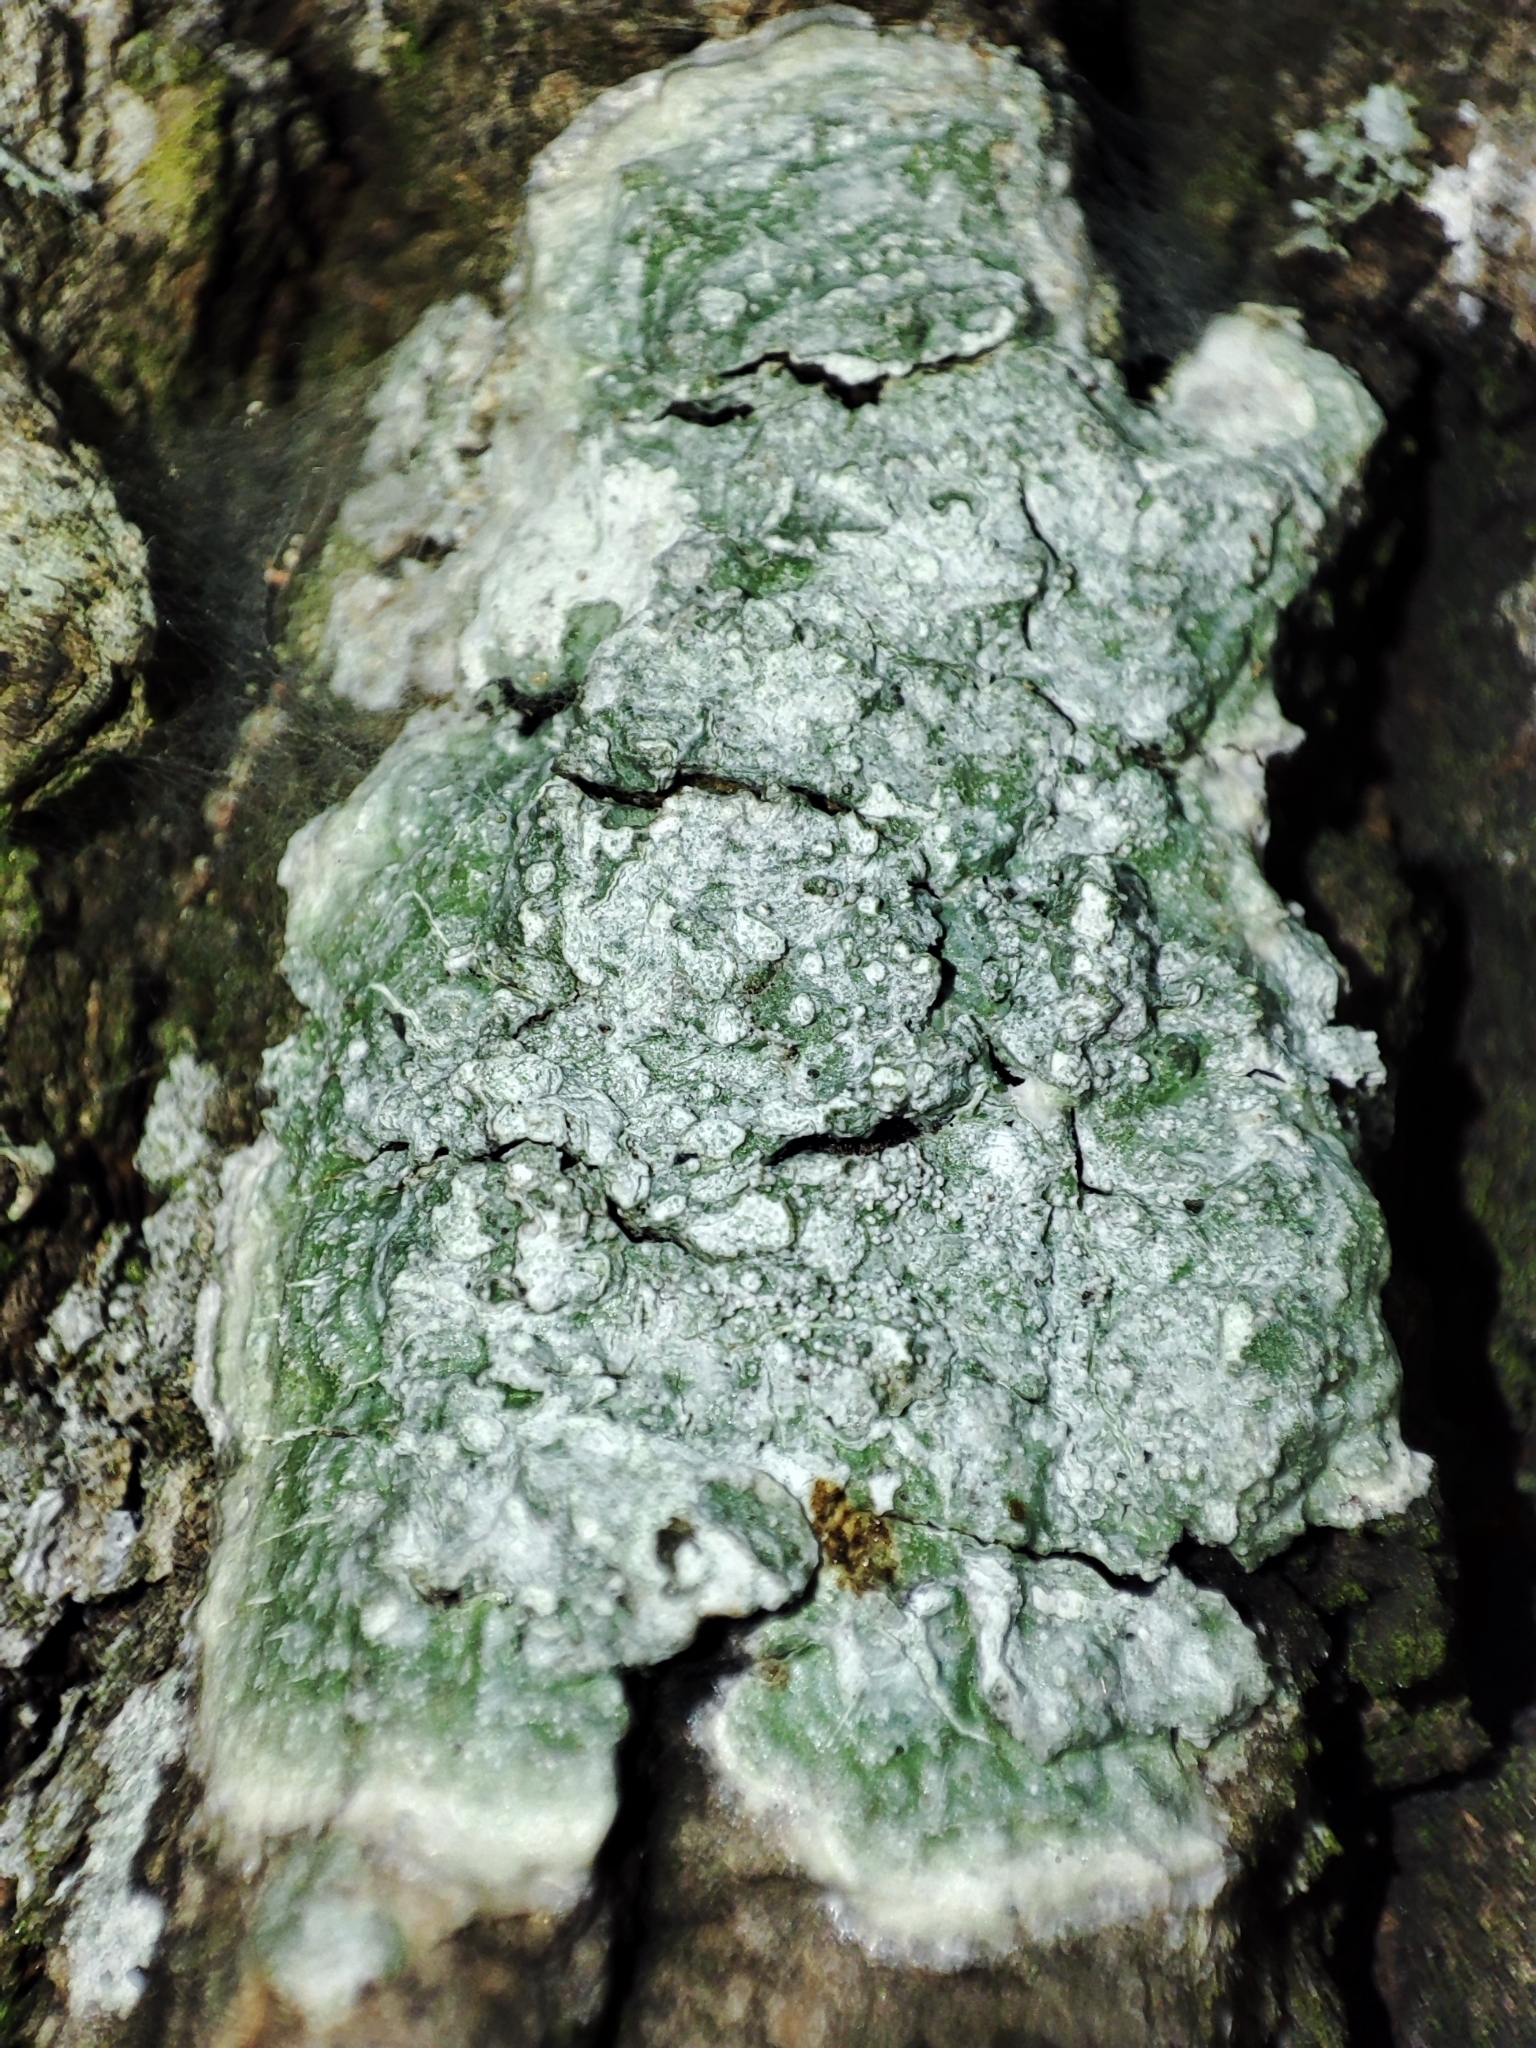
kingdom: Fungi
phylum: Ascomycota
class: Lecanoromycetes
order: Pertusariales
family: Pertusariaceae
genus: Lepra
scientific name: Lepra albescens
